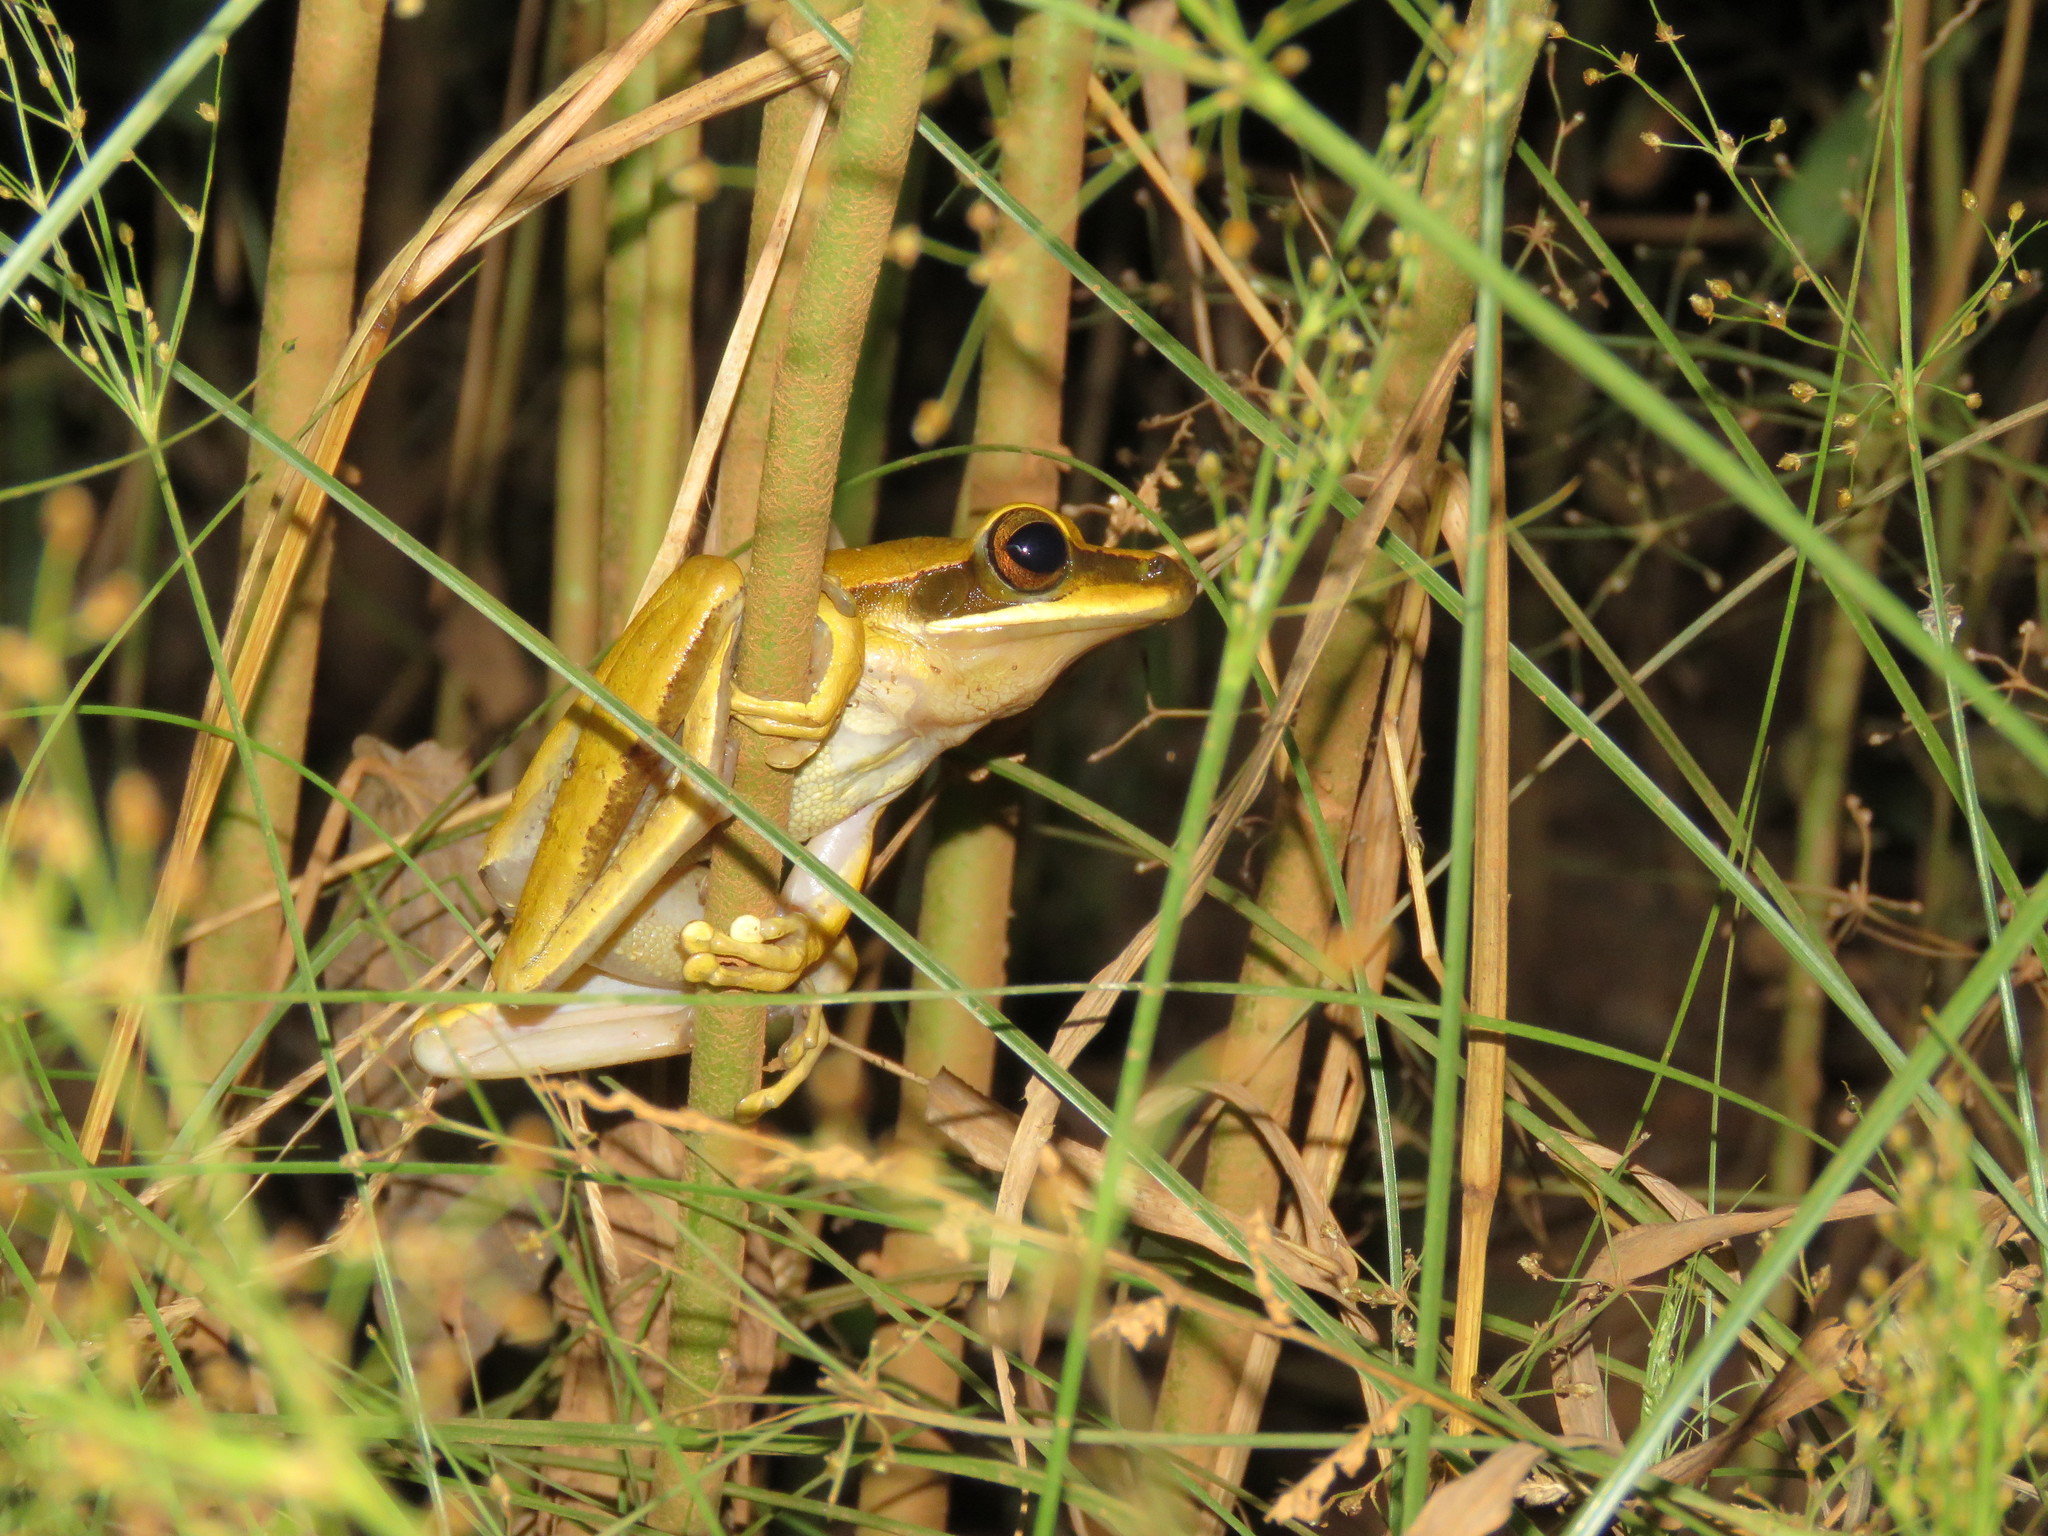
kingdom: Animalia
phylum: Chordata
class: Amphibia
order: Anura
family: Hylidae
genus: Boana
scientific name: Boana lanciformis
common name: Rana lanceolada commún
